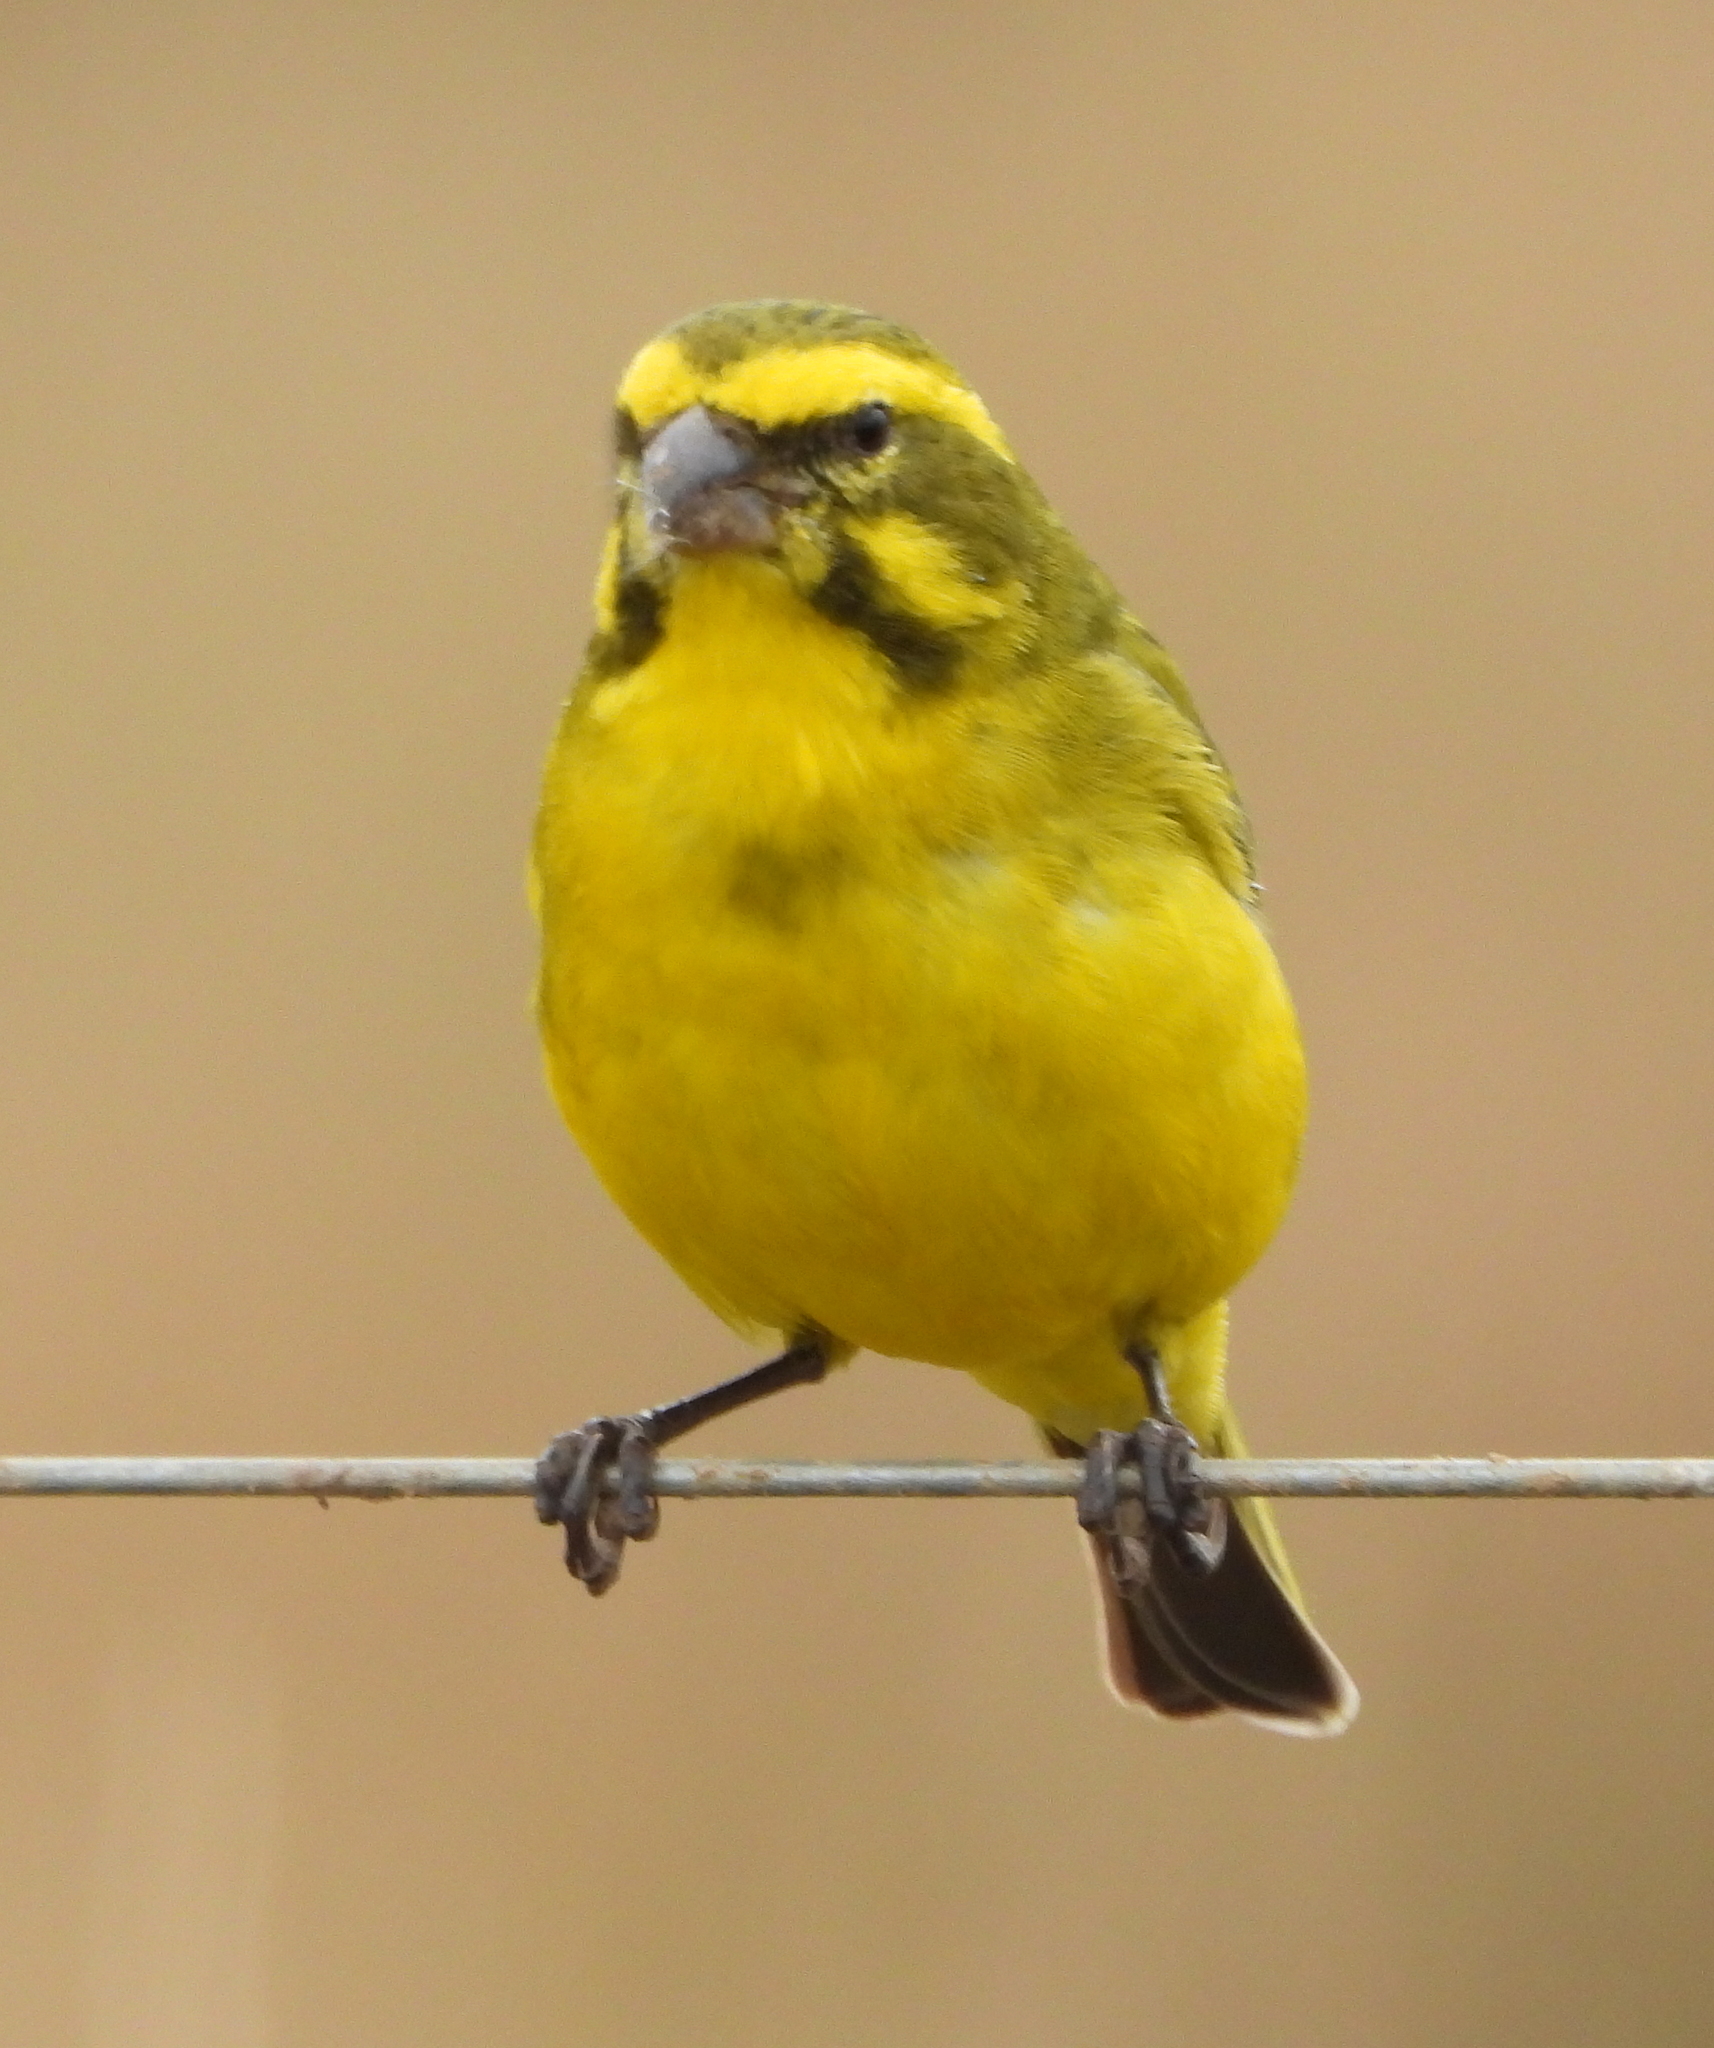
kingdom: Animalia
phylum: Chordata
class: Aves
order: Passeriformes
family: Fringillidae
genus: Crithagra
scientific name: Crithagra flaviventris
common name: Yellow canary
